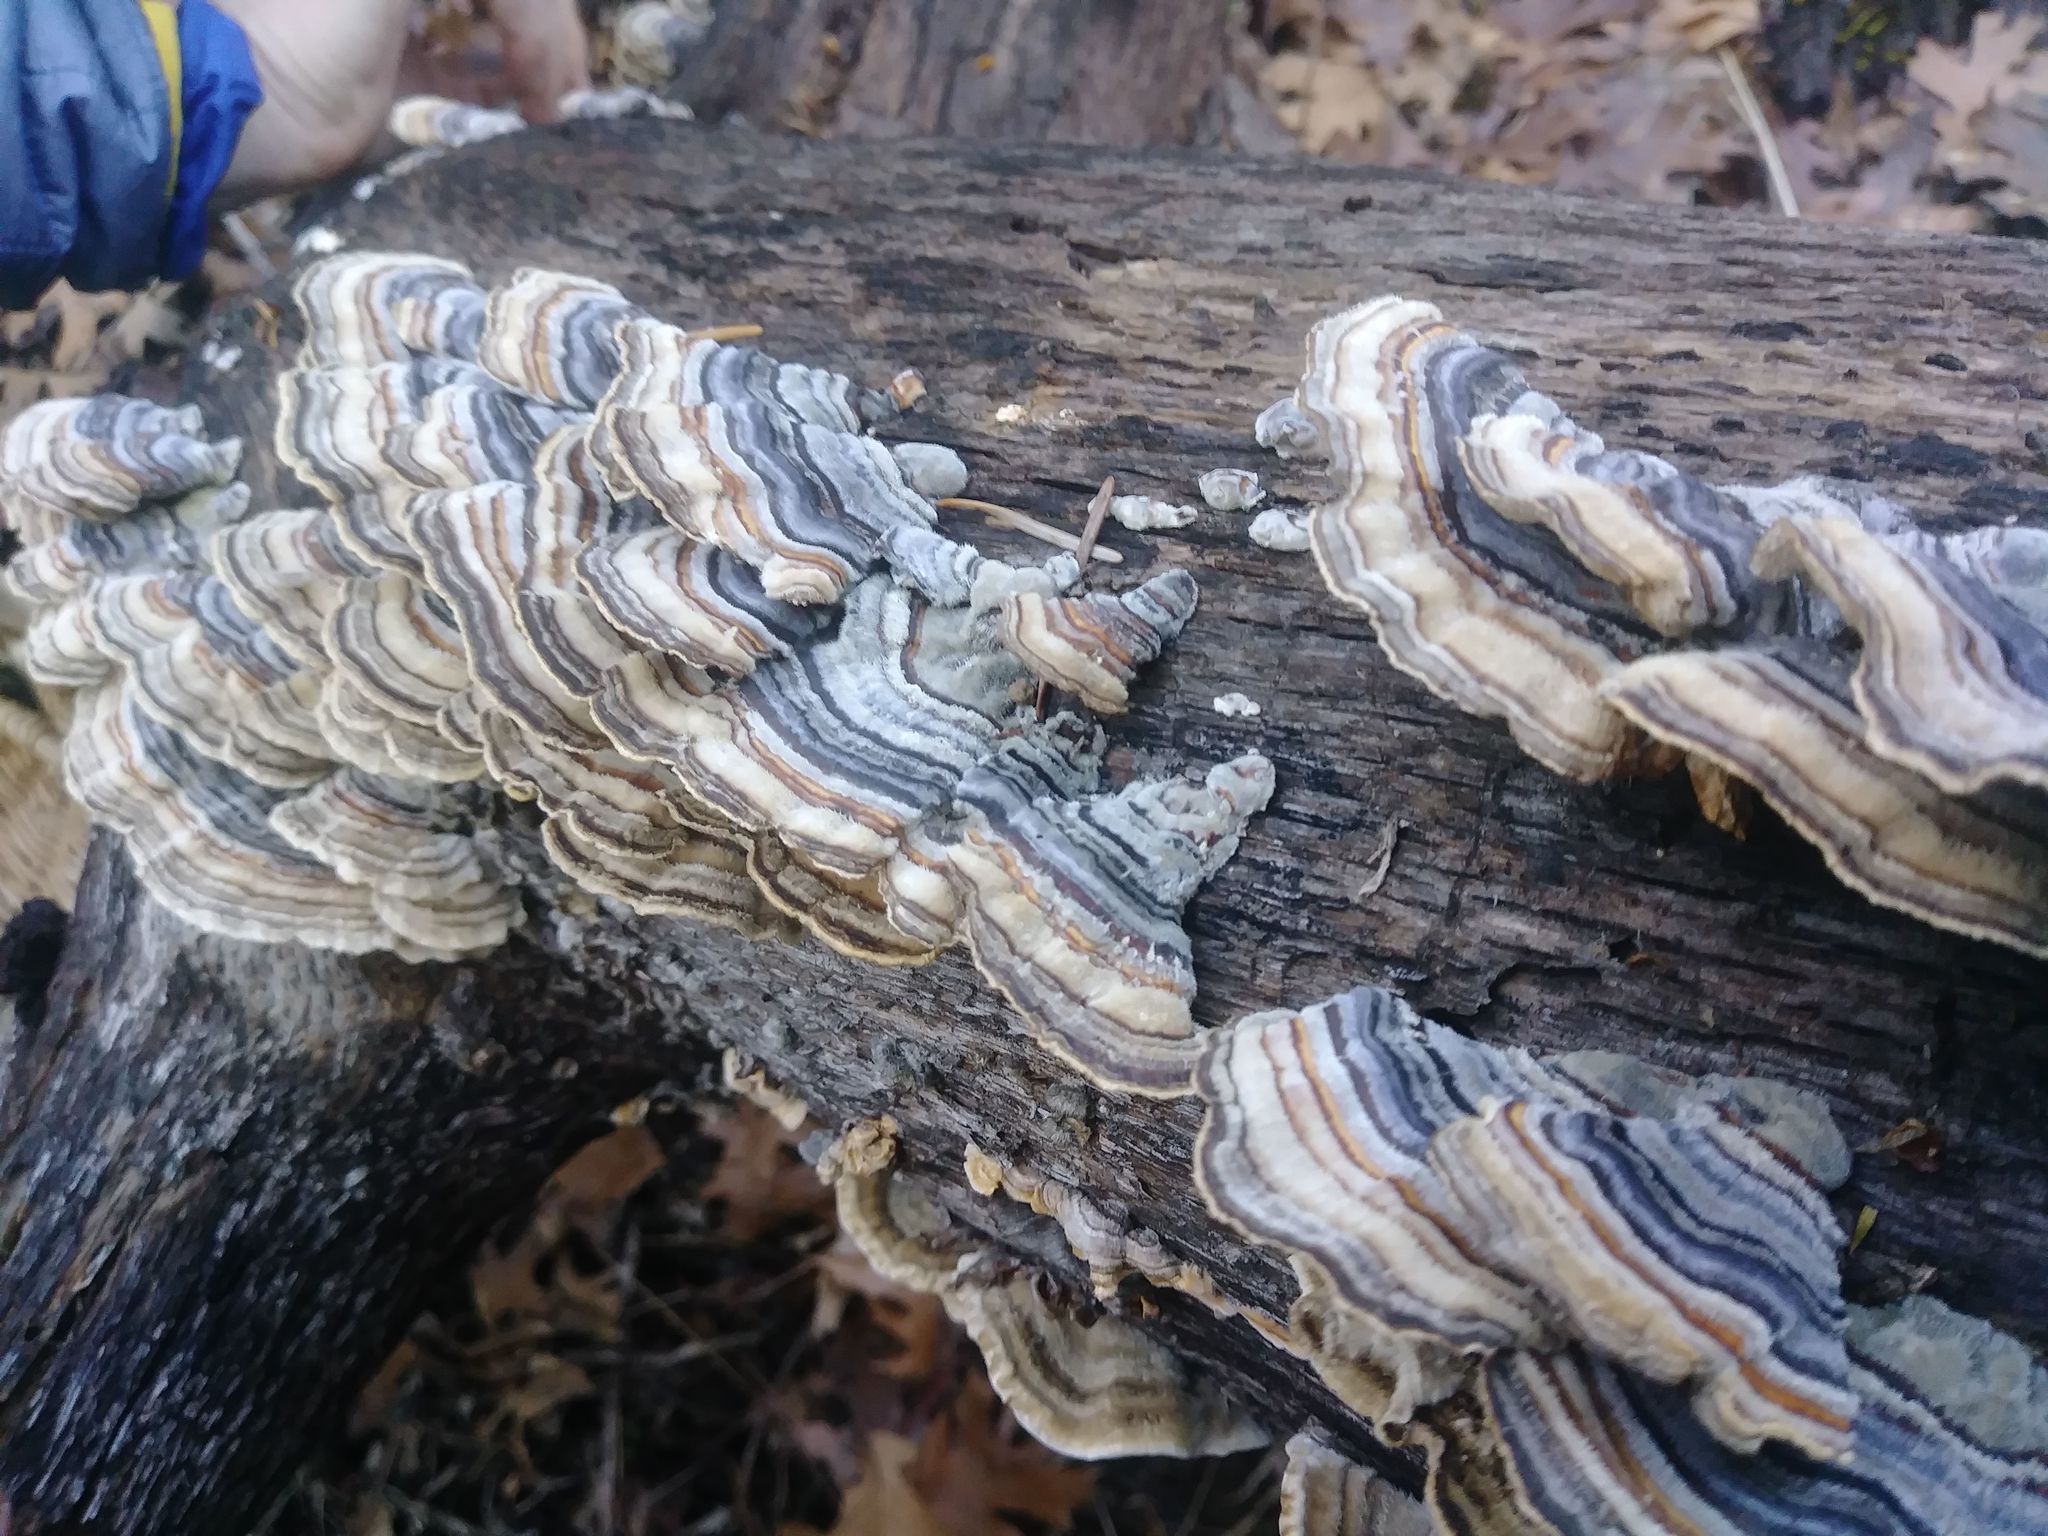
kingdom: Fungi
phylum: Basidiomycota
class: Agaricomycetes
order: Polyporales
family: Polyporaceae
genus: Trametes
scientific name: Trametes versicolor
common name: Turkeytail
